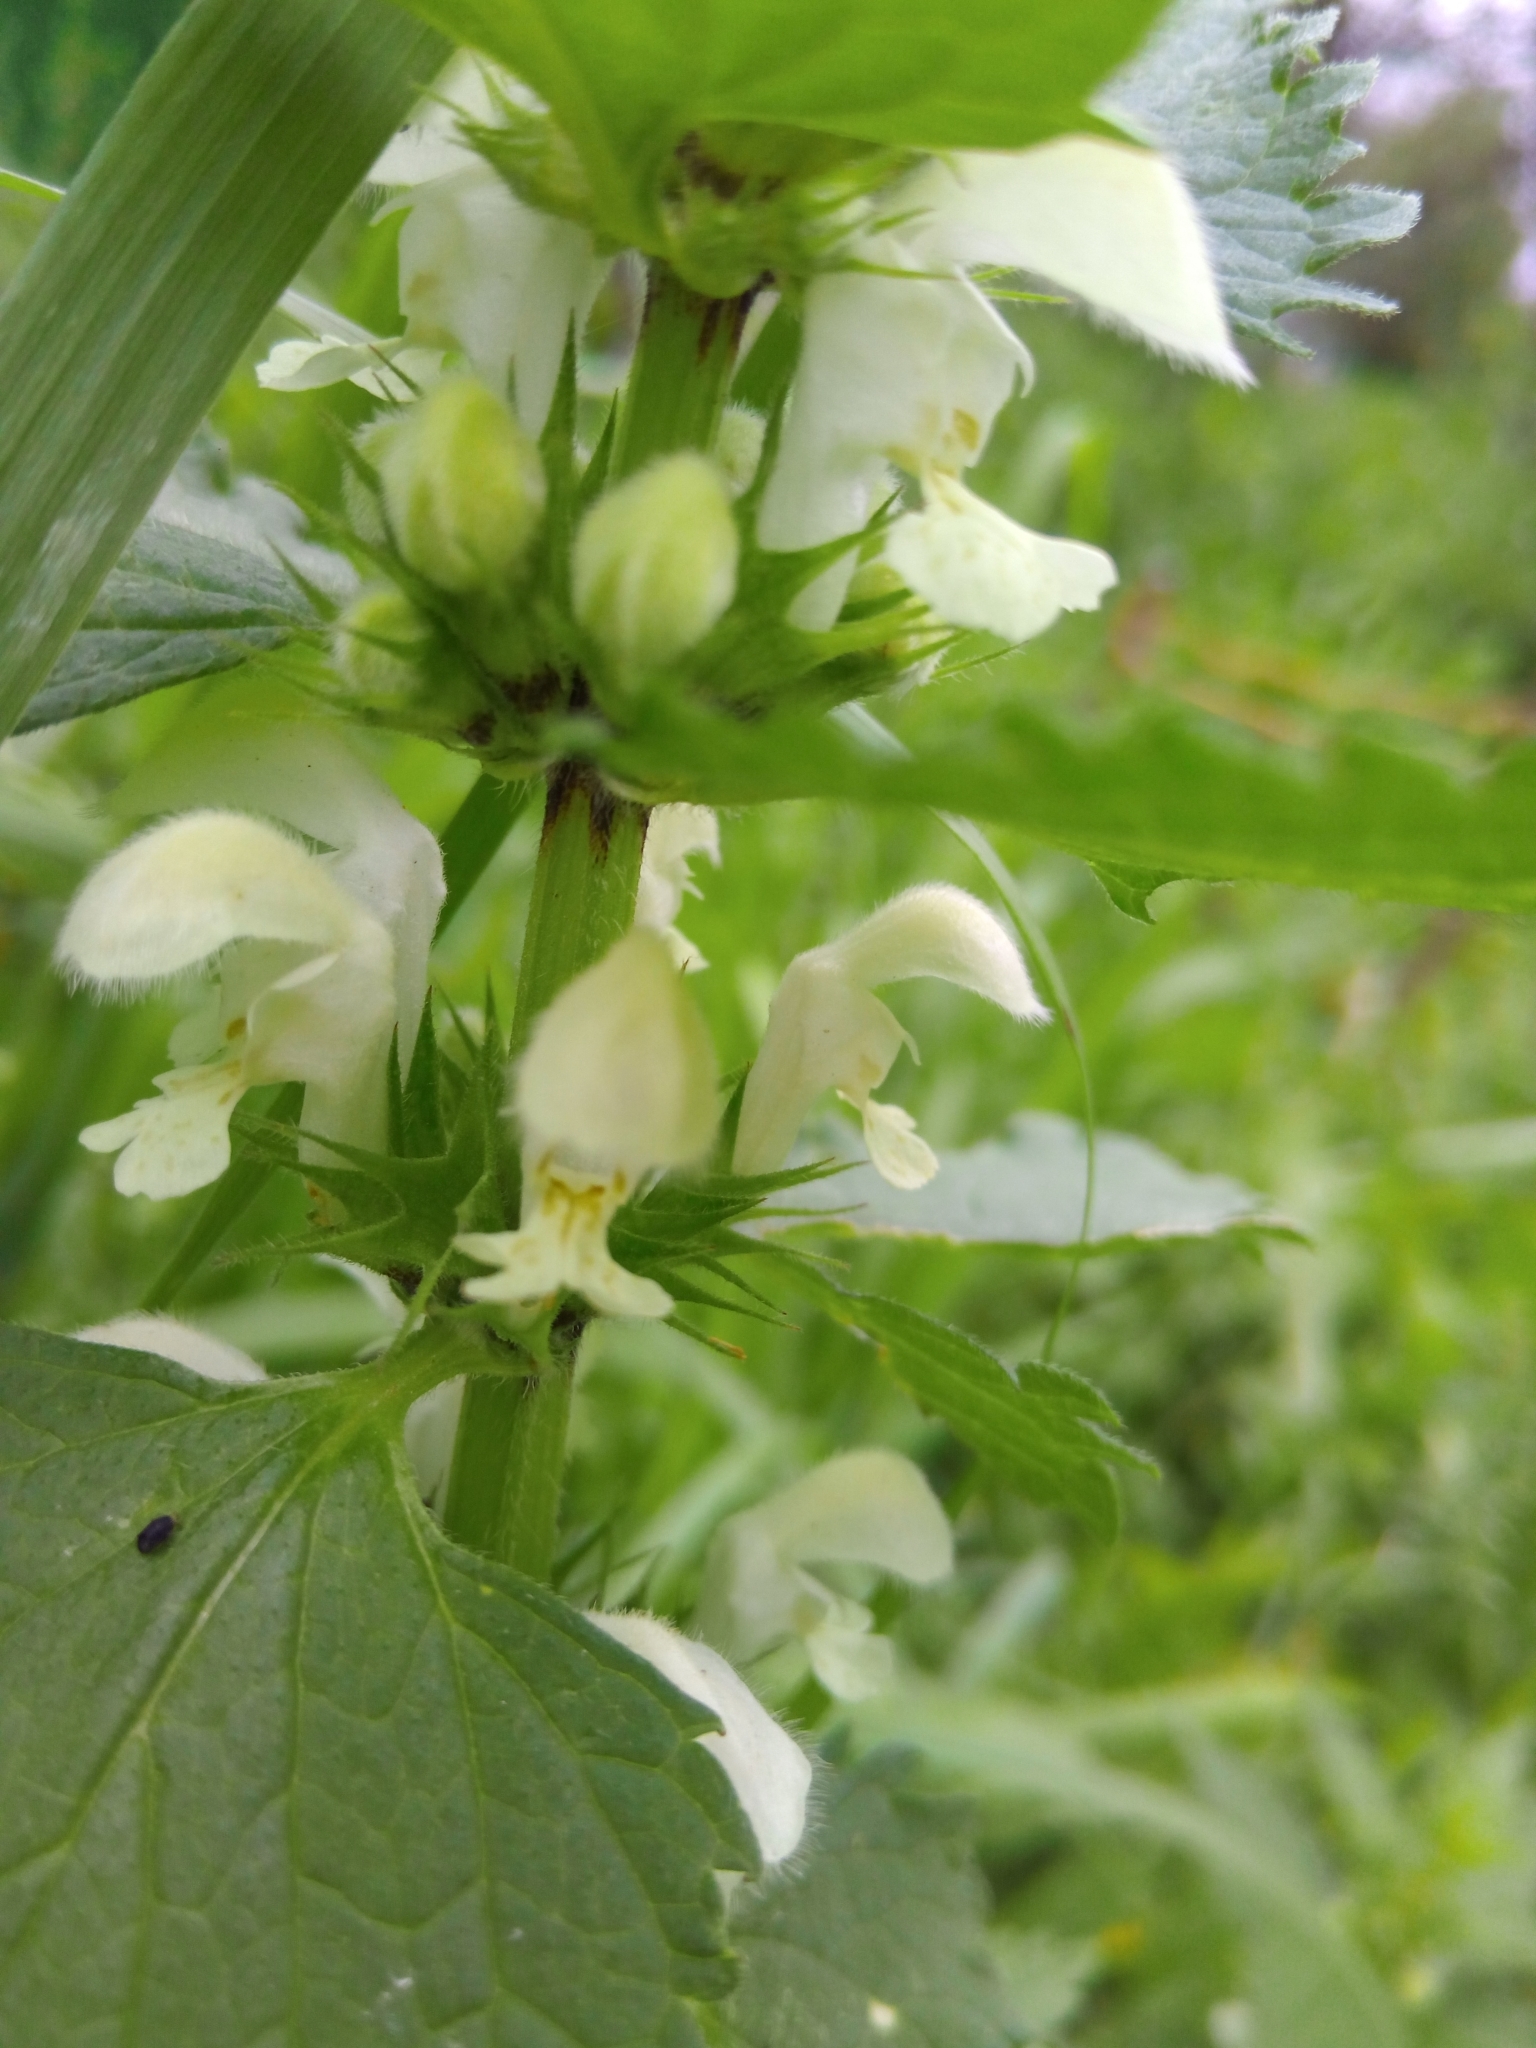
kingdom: Plantae
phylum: Tracheophyta
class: Magnoliopsida
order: Lamiales
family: Lamiaceae
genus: Lamium
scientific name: Lamium album
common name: White dead-nettle
